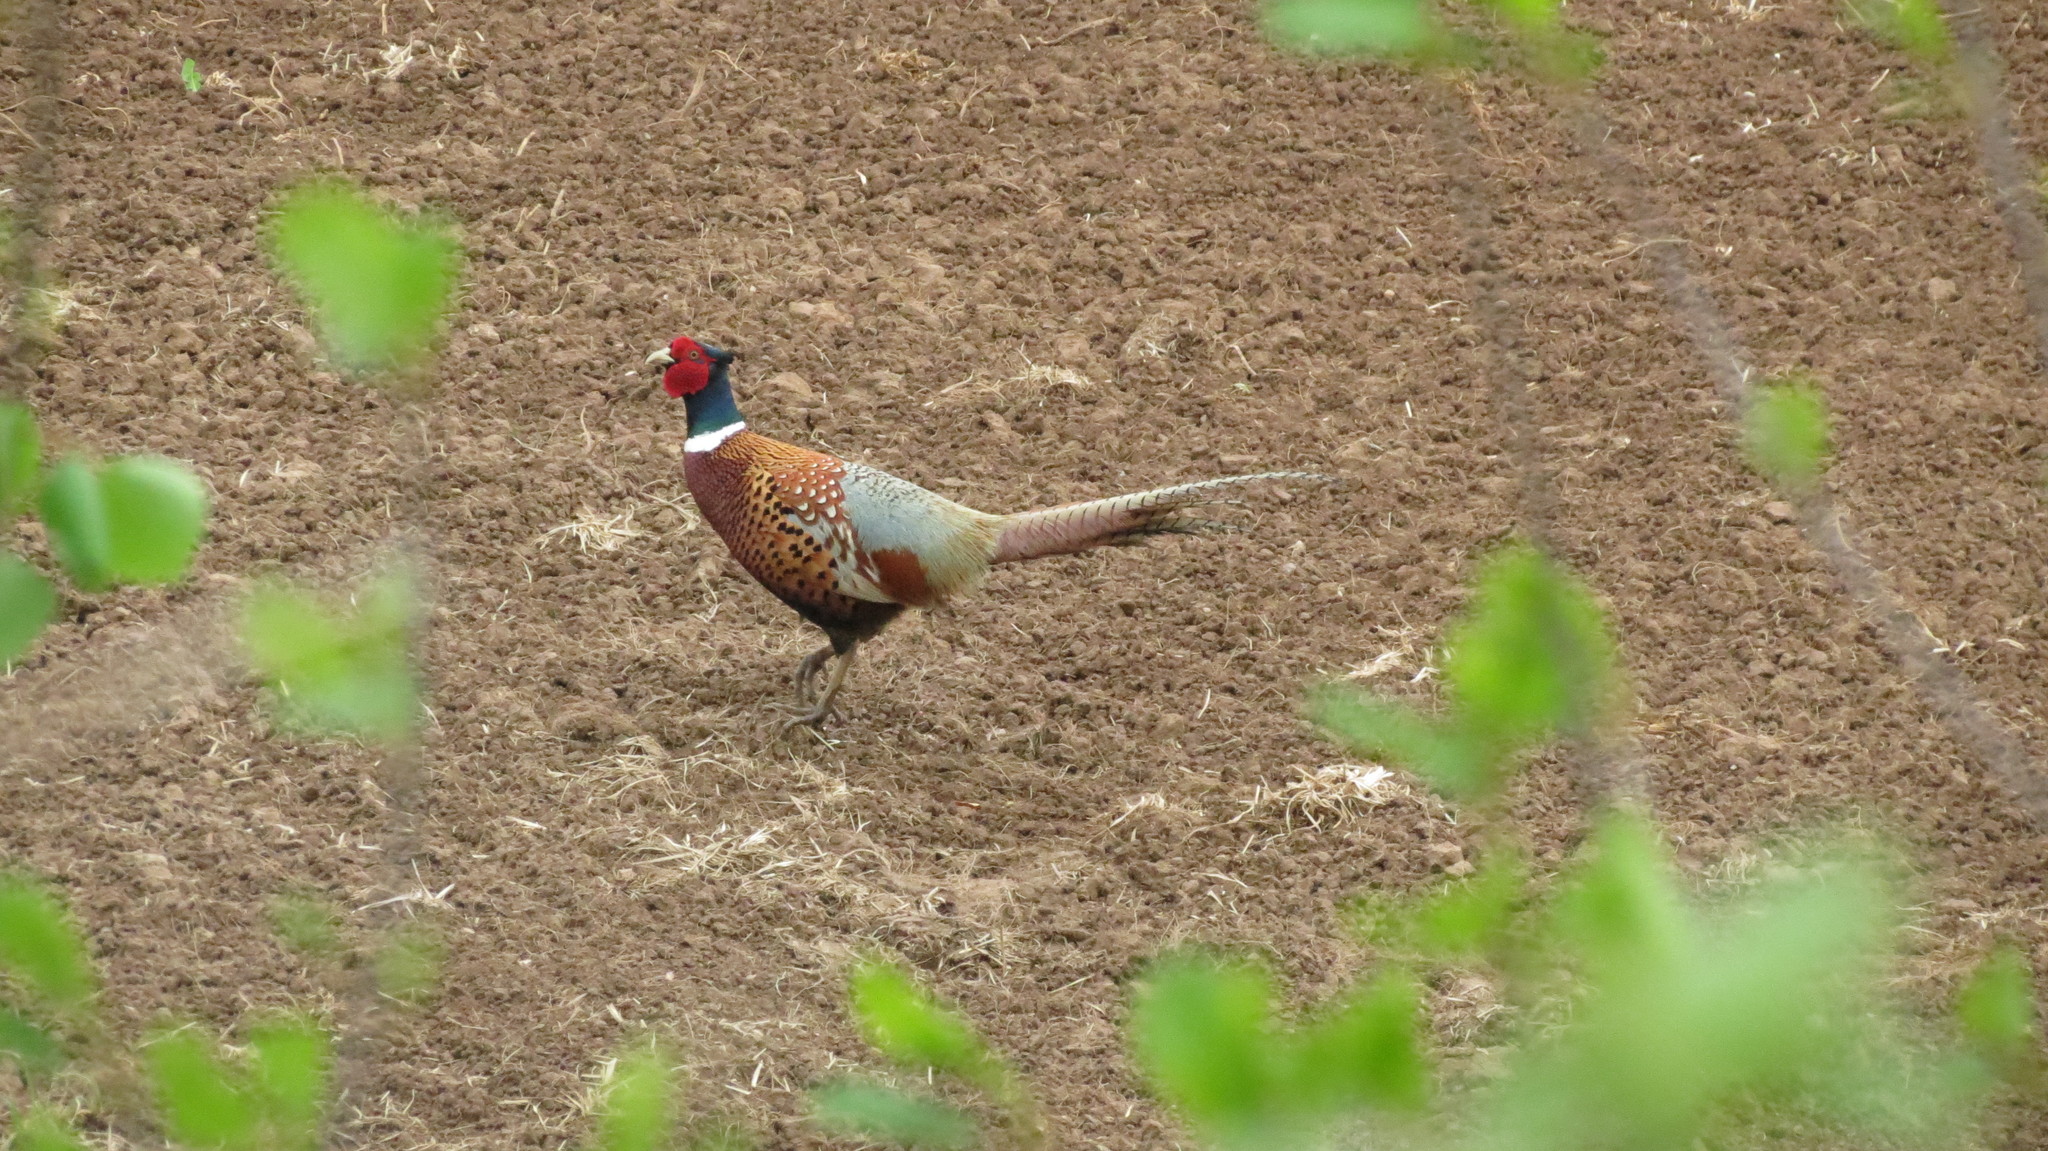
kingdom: Animalia
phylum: Chordata
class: Aves
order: Galliformes
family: Phasianidae
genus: Phasianus
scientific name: Phasianus colchicus
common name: Common pheasant
